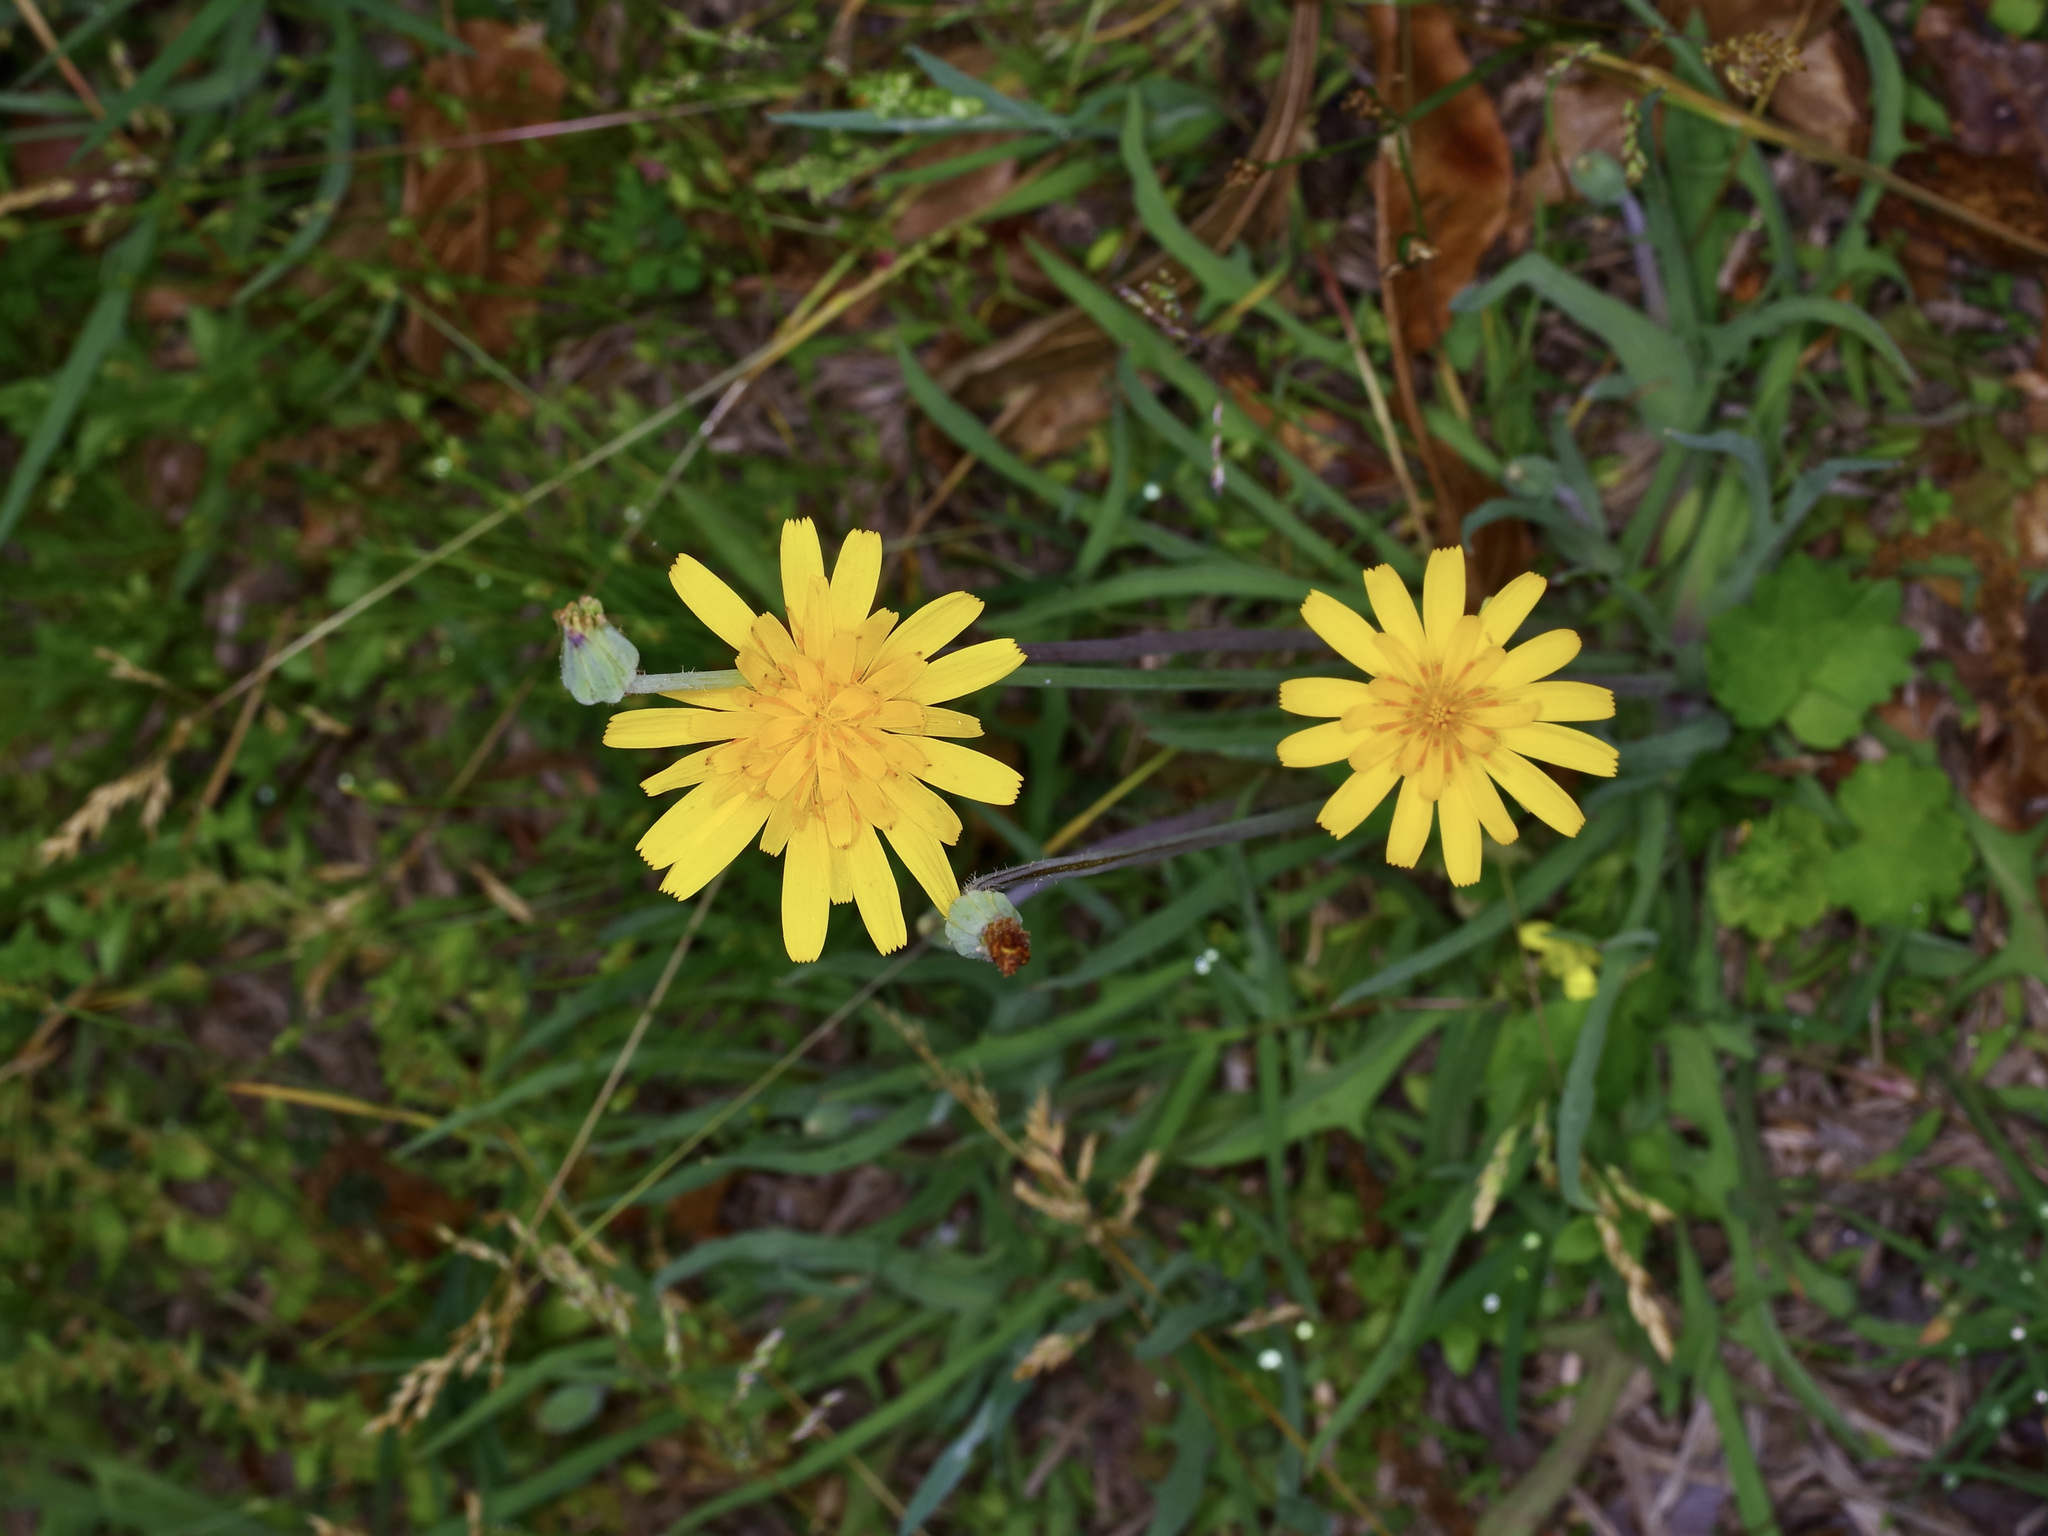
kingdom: Plantae
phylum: Tracheophyta
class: Magnoliopsida
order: Asterales
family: Asteraceae
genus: Krigia
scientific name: Krigia dandelion
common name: Colonial dwarf-dandelion
